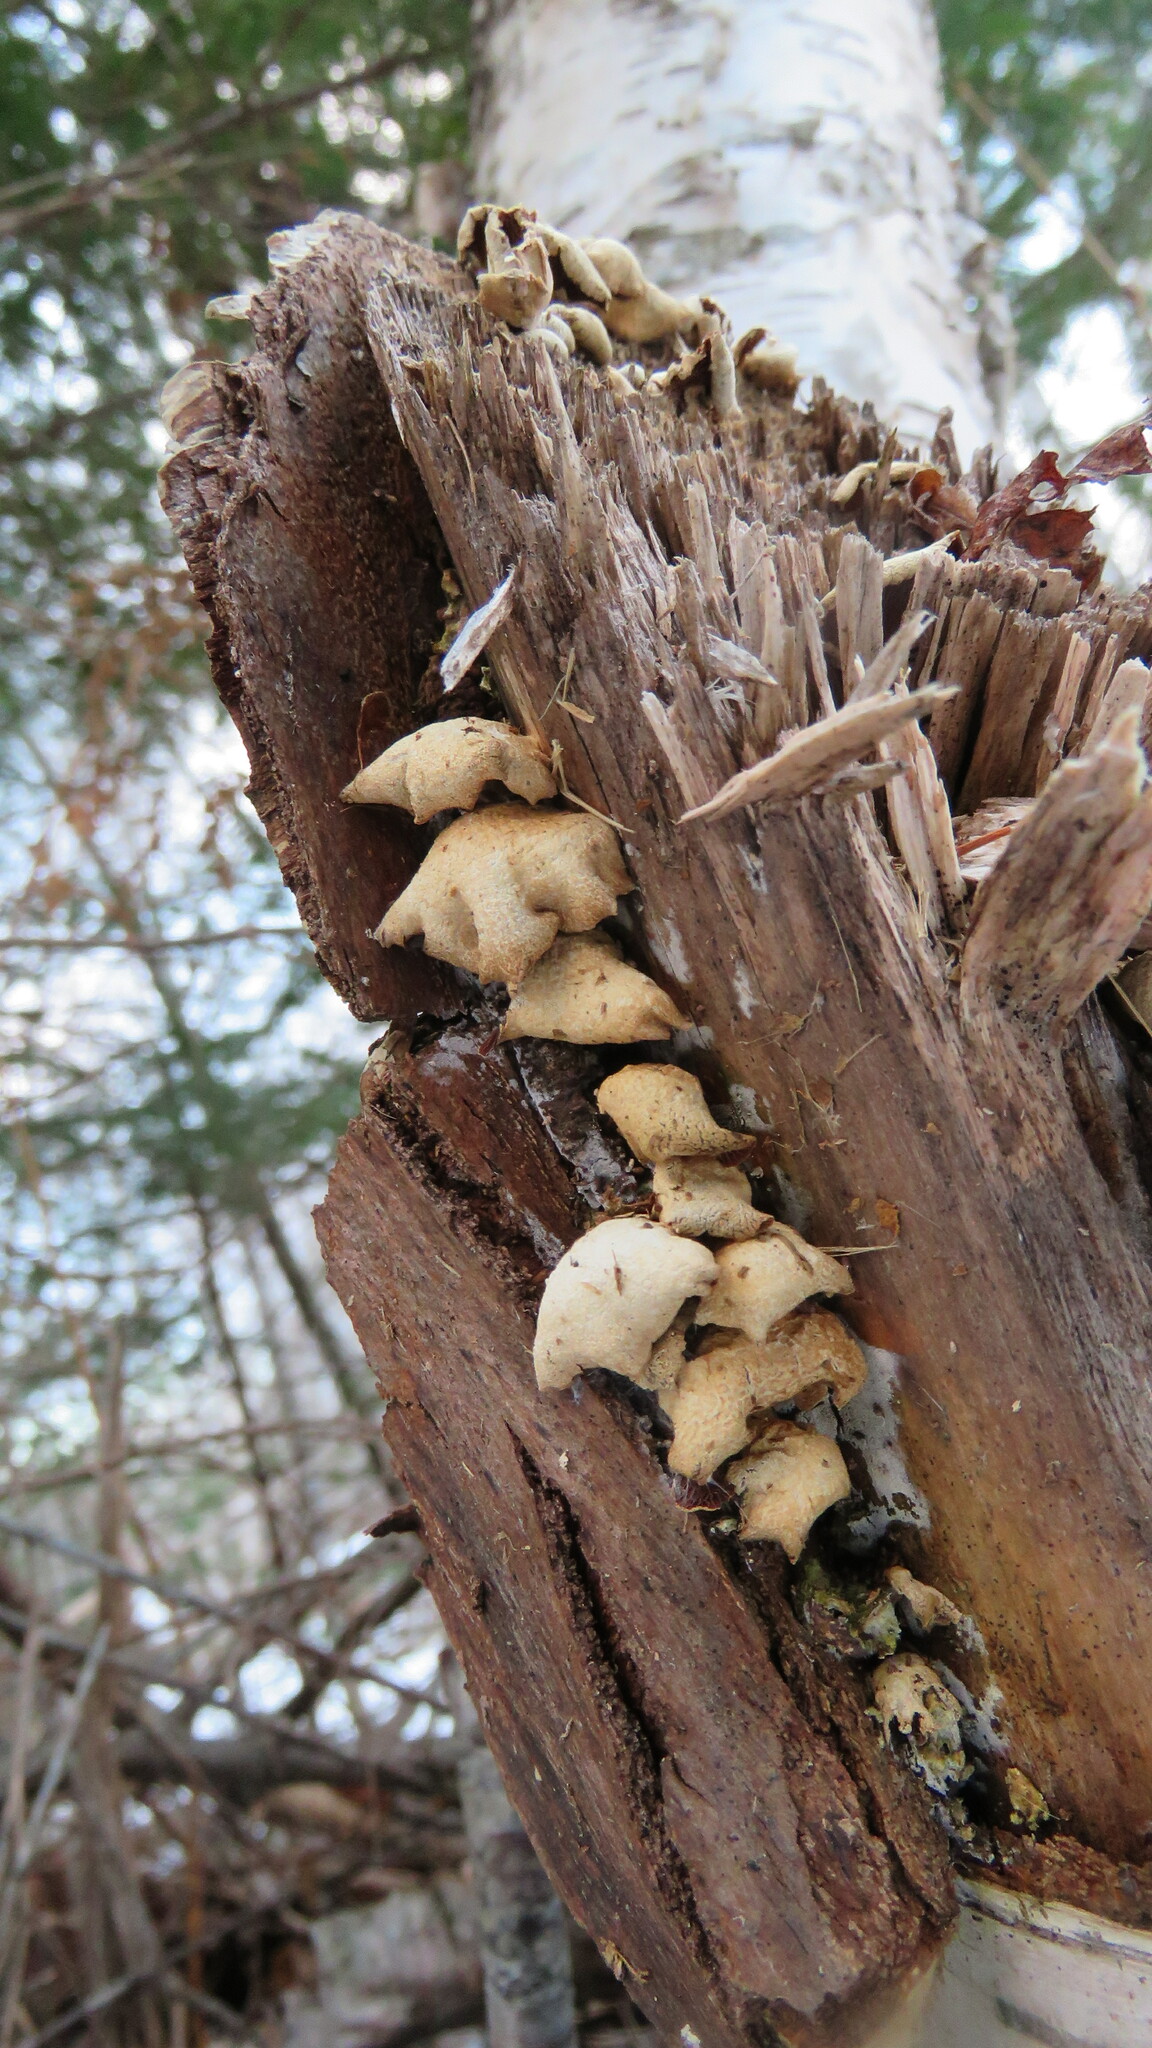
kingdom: Fungi
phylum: Basidiomycota
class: Agaricomycetes
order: Agaricales
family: Mycenaceae
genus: Panellus
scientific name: Panellus stipticus
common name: Bitter oysterling
